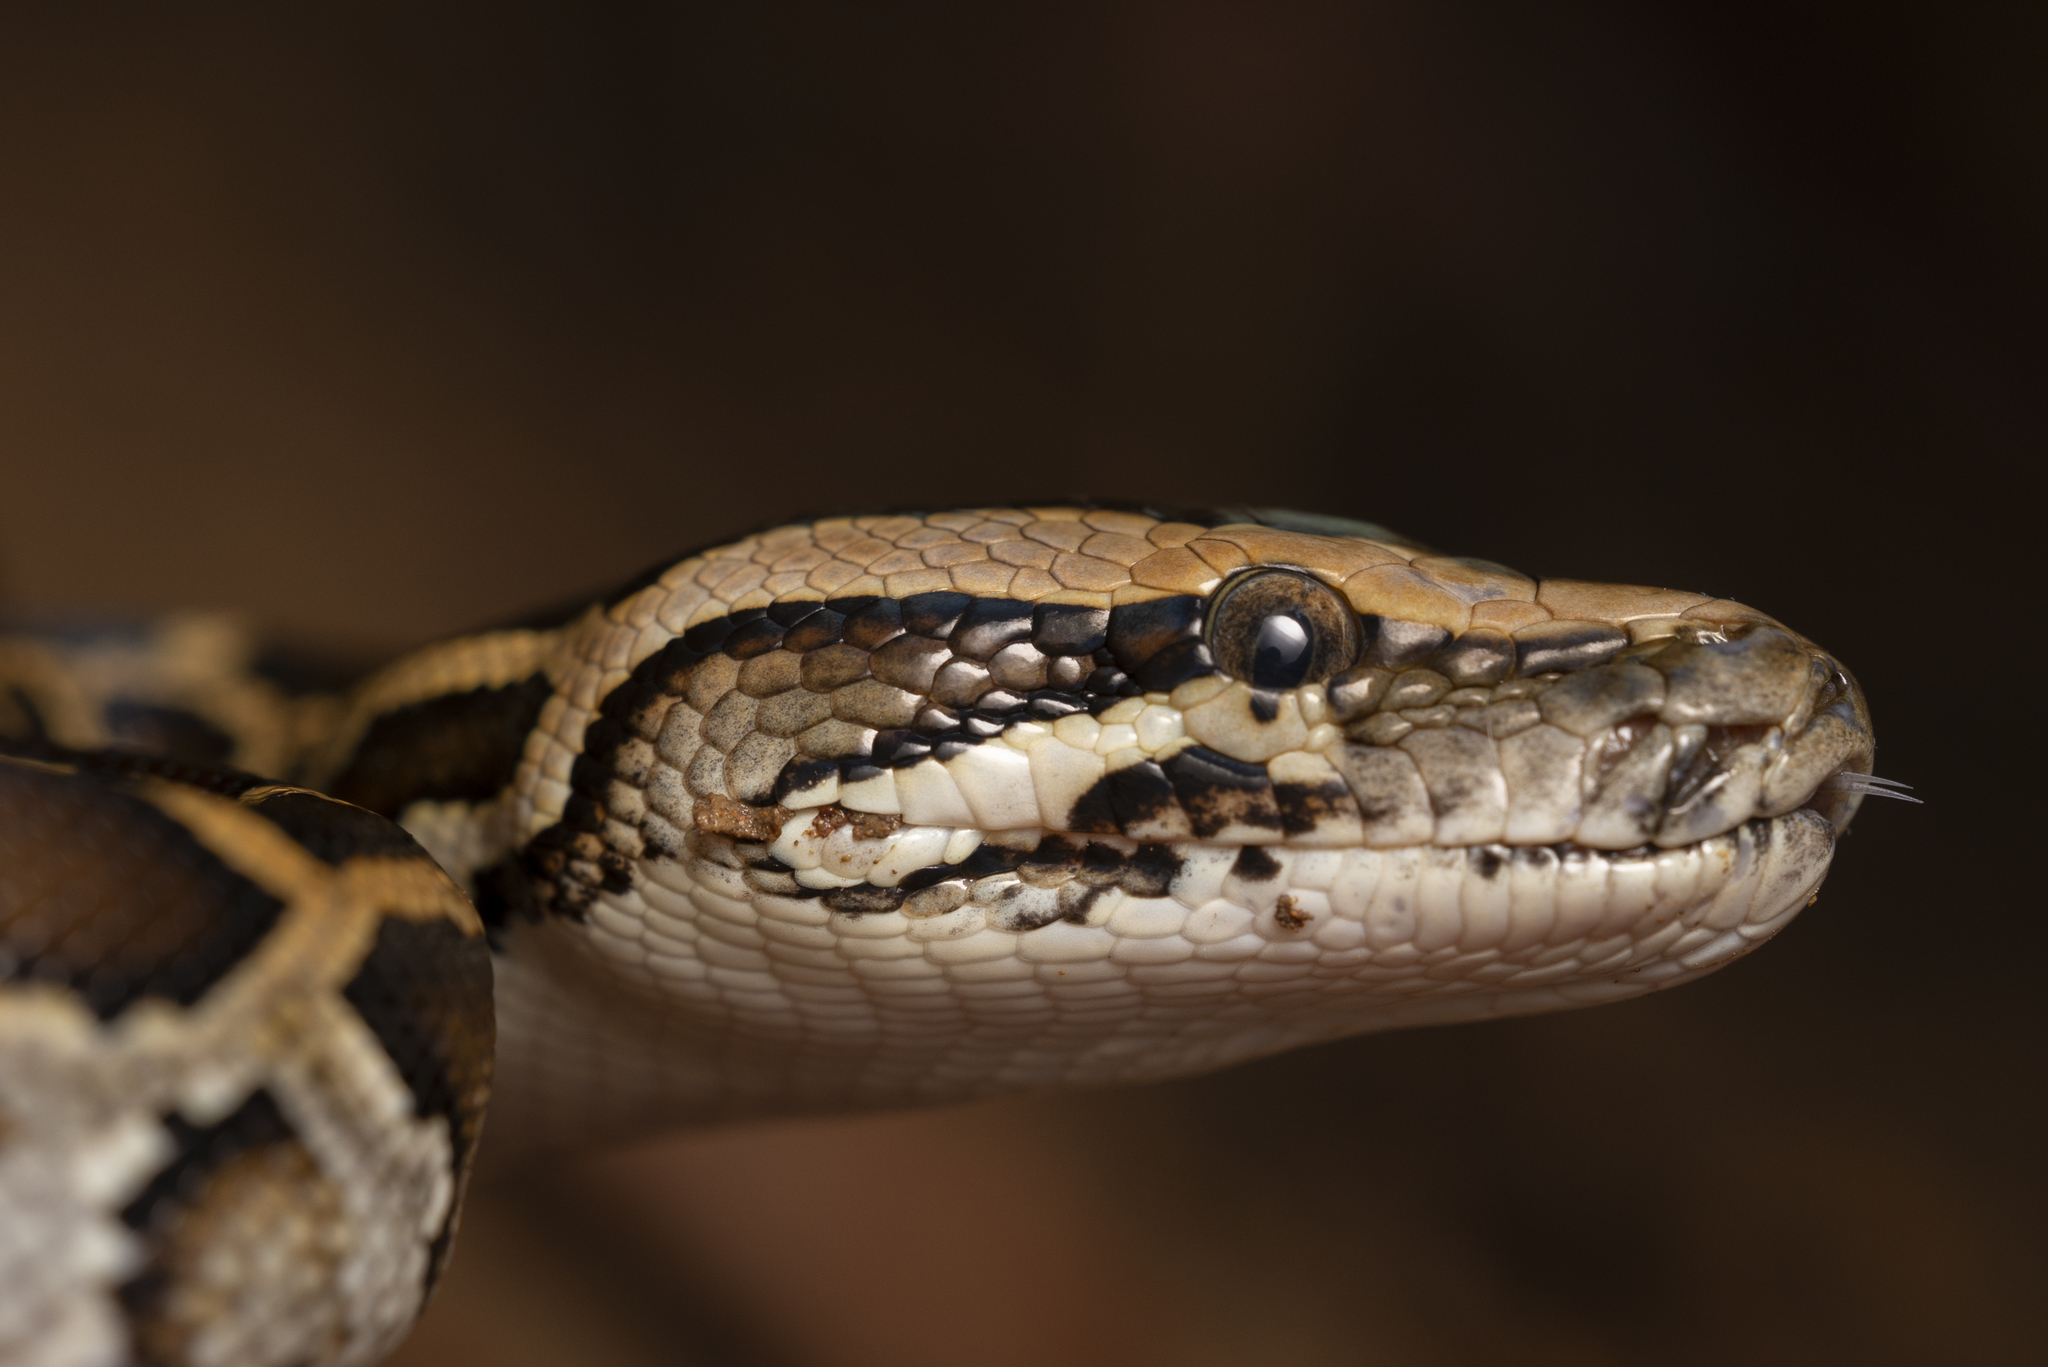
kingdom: Animalia
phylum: Chordata
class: Squamata
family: Pythonidae
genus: Python
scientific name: Python bivittatus
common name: Burmese python
